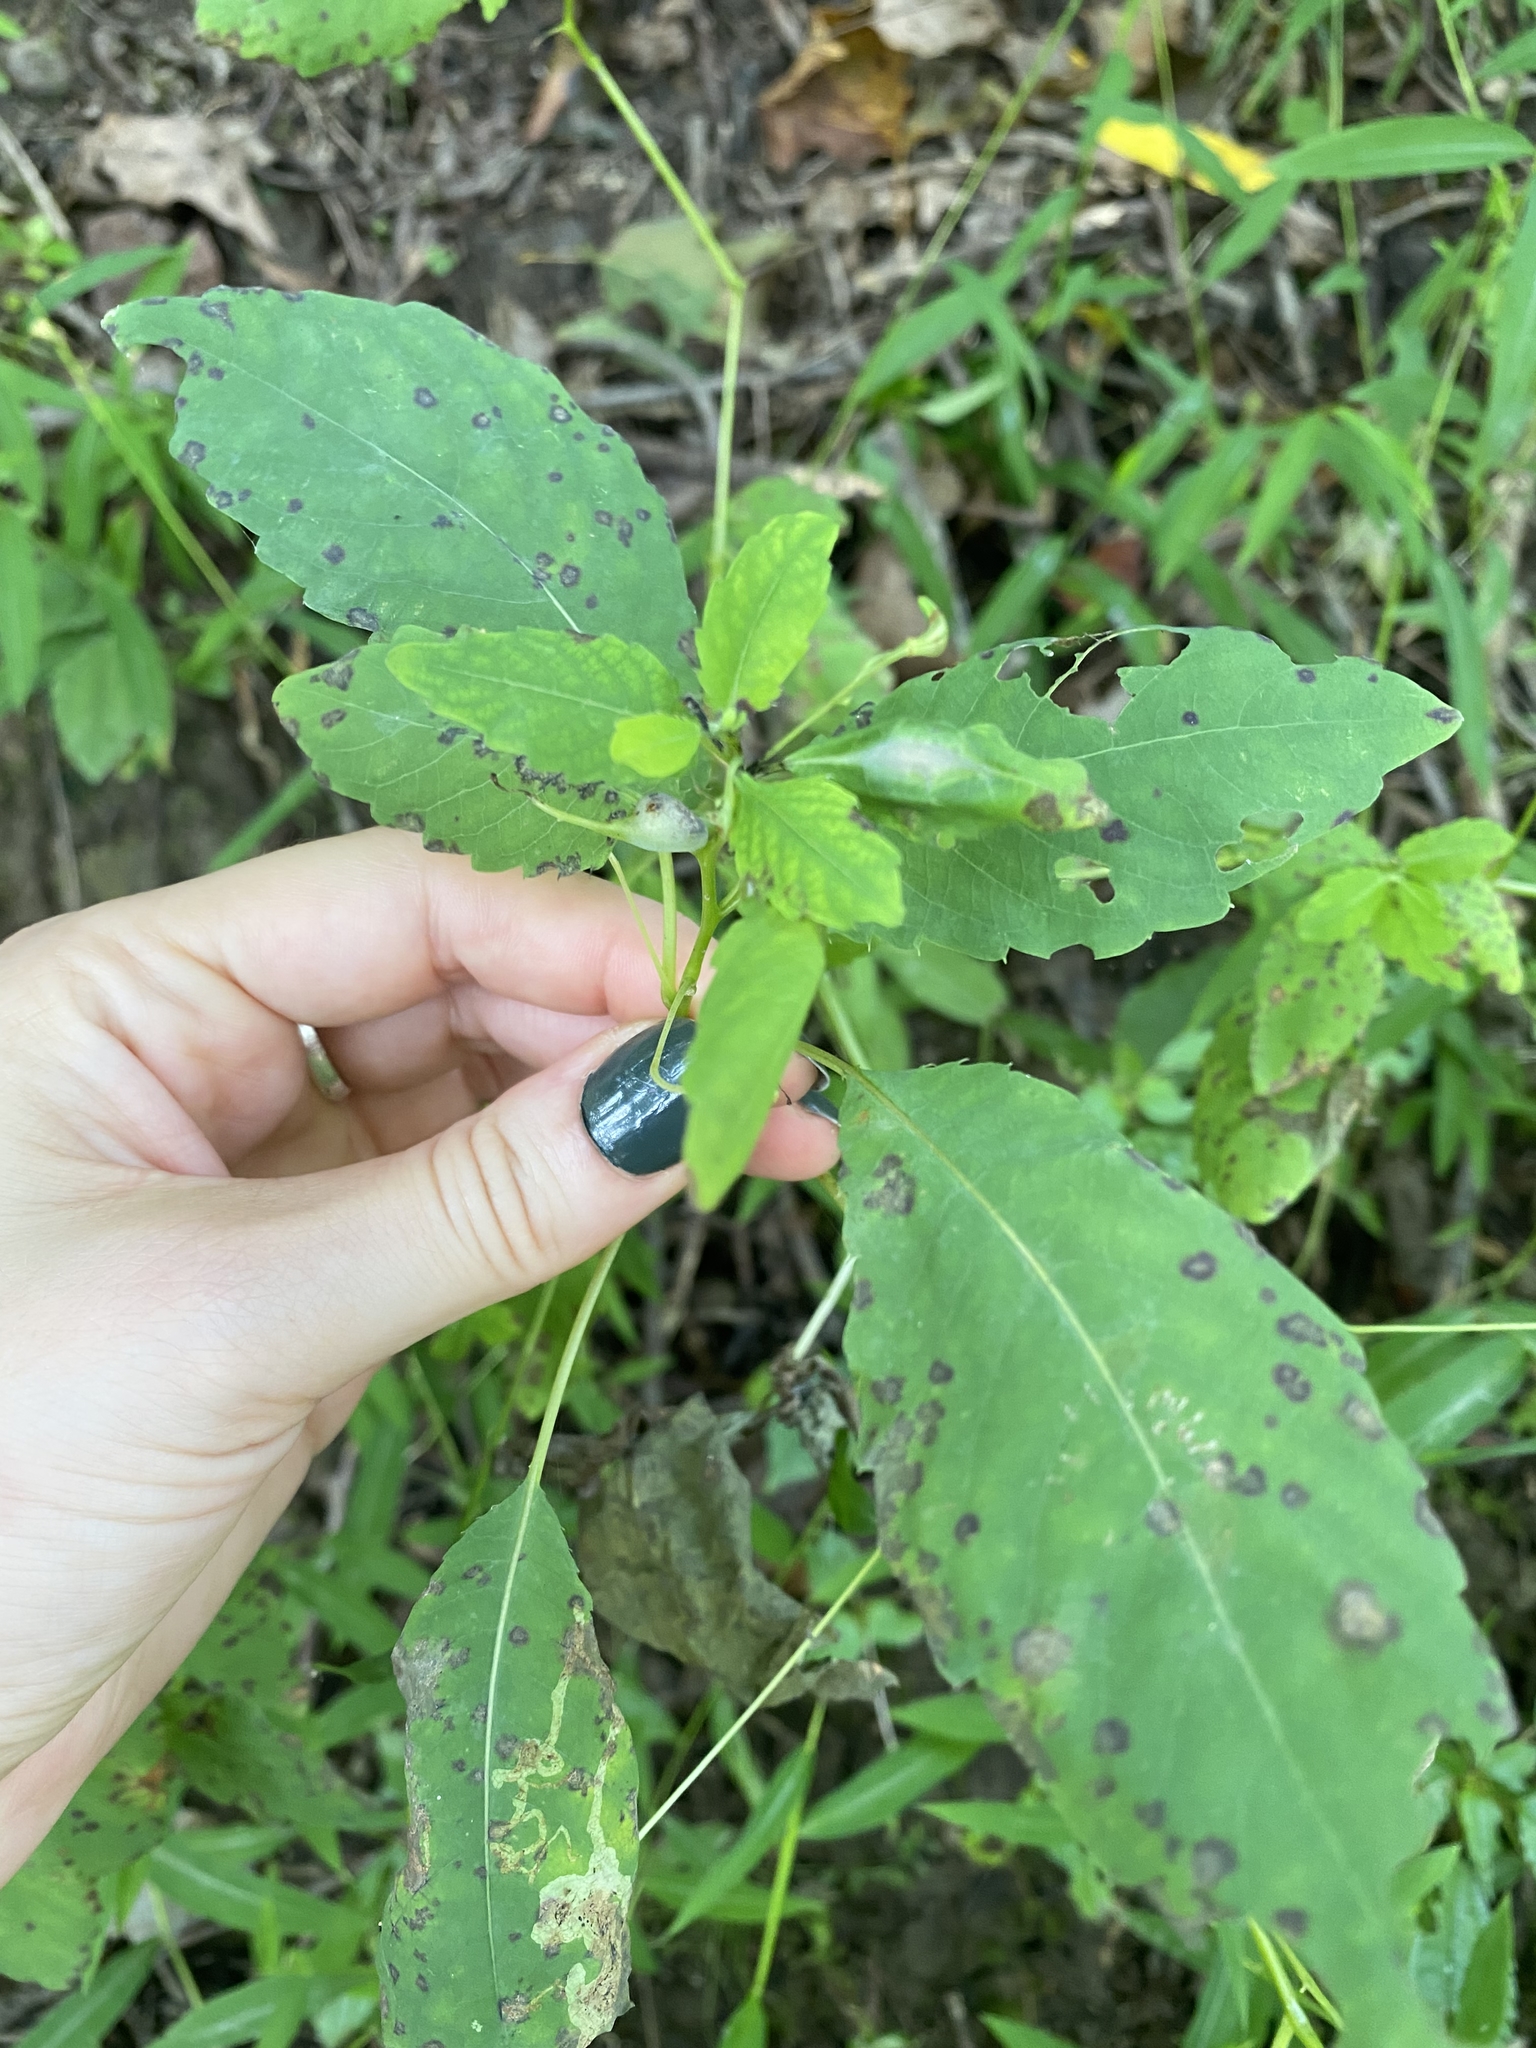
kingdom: Animalia
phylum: Arthropoda
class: Insecta
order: Diptera
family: Agromyzidae
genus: Phytoliriomyza
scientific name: Phytoliriomyza melampyga
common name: Jewelweed leaf-miner fly
